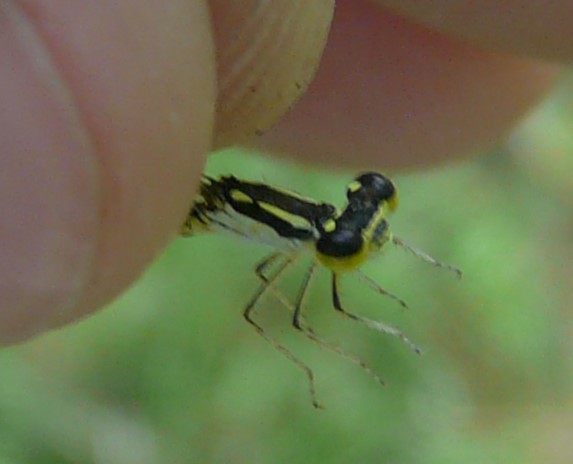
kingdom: Animalia
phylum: Arthropoda
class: Insecta
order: Odonata
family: Coenagrionidae
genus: Ischnura
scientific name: Ischnura posita
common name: Fragile forktail
